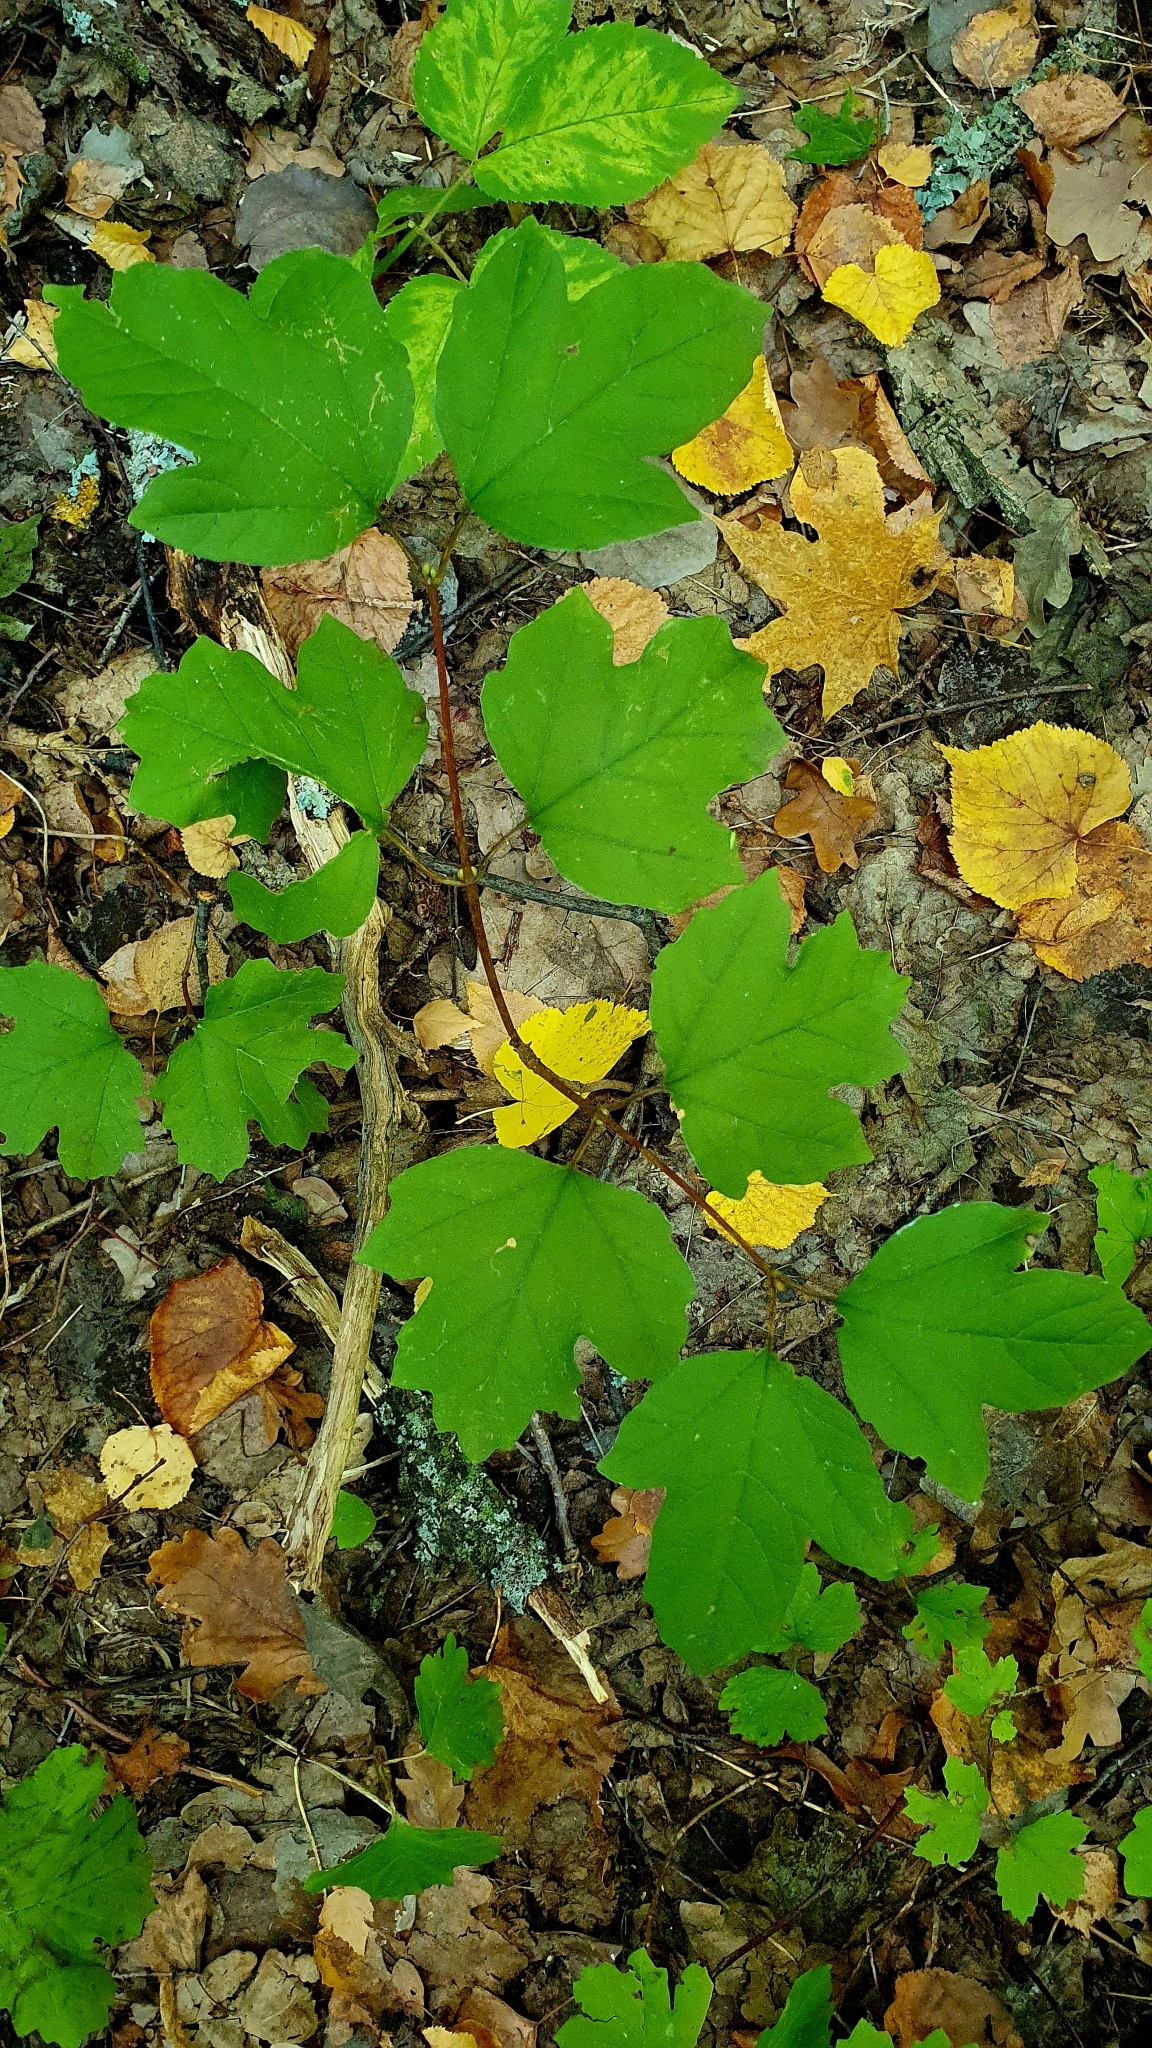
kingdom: Plantae
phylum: Tracheophyta
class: Magnoliopsida
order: Dipsacales
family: Viburnaceae
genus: Viburnum
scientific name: Viburnum opulus
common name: Guelder-rose
